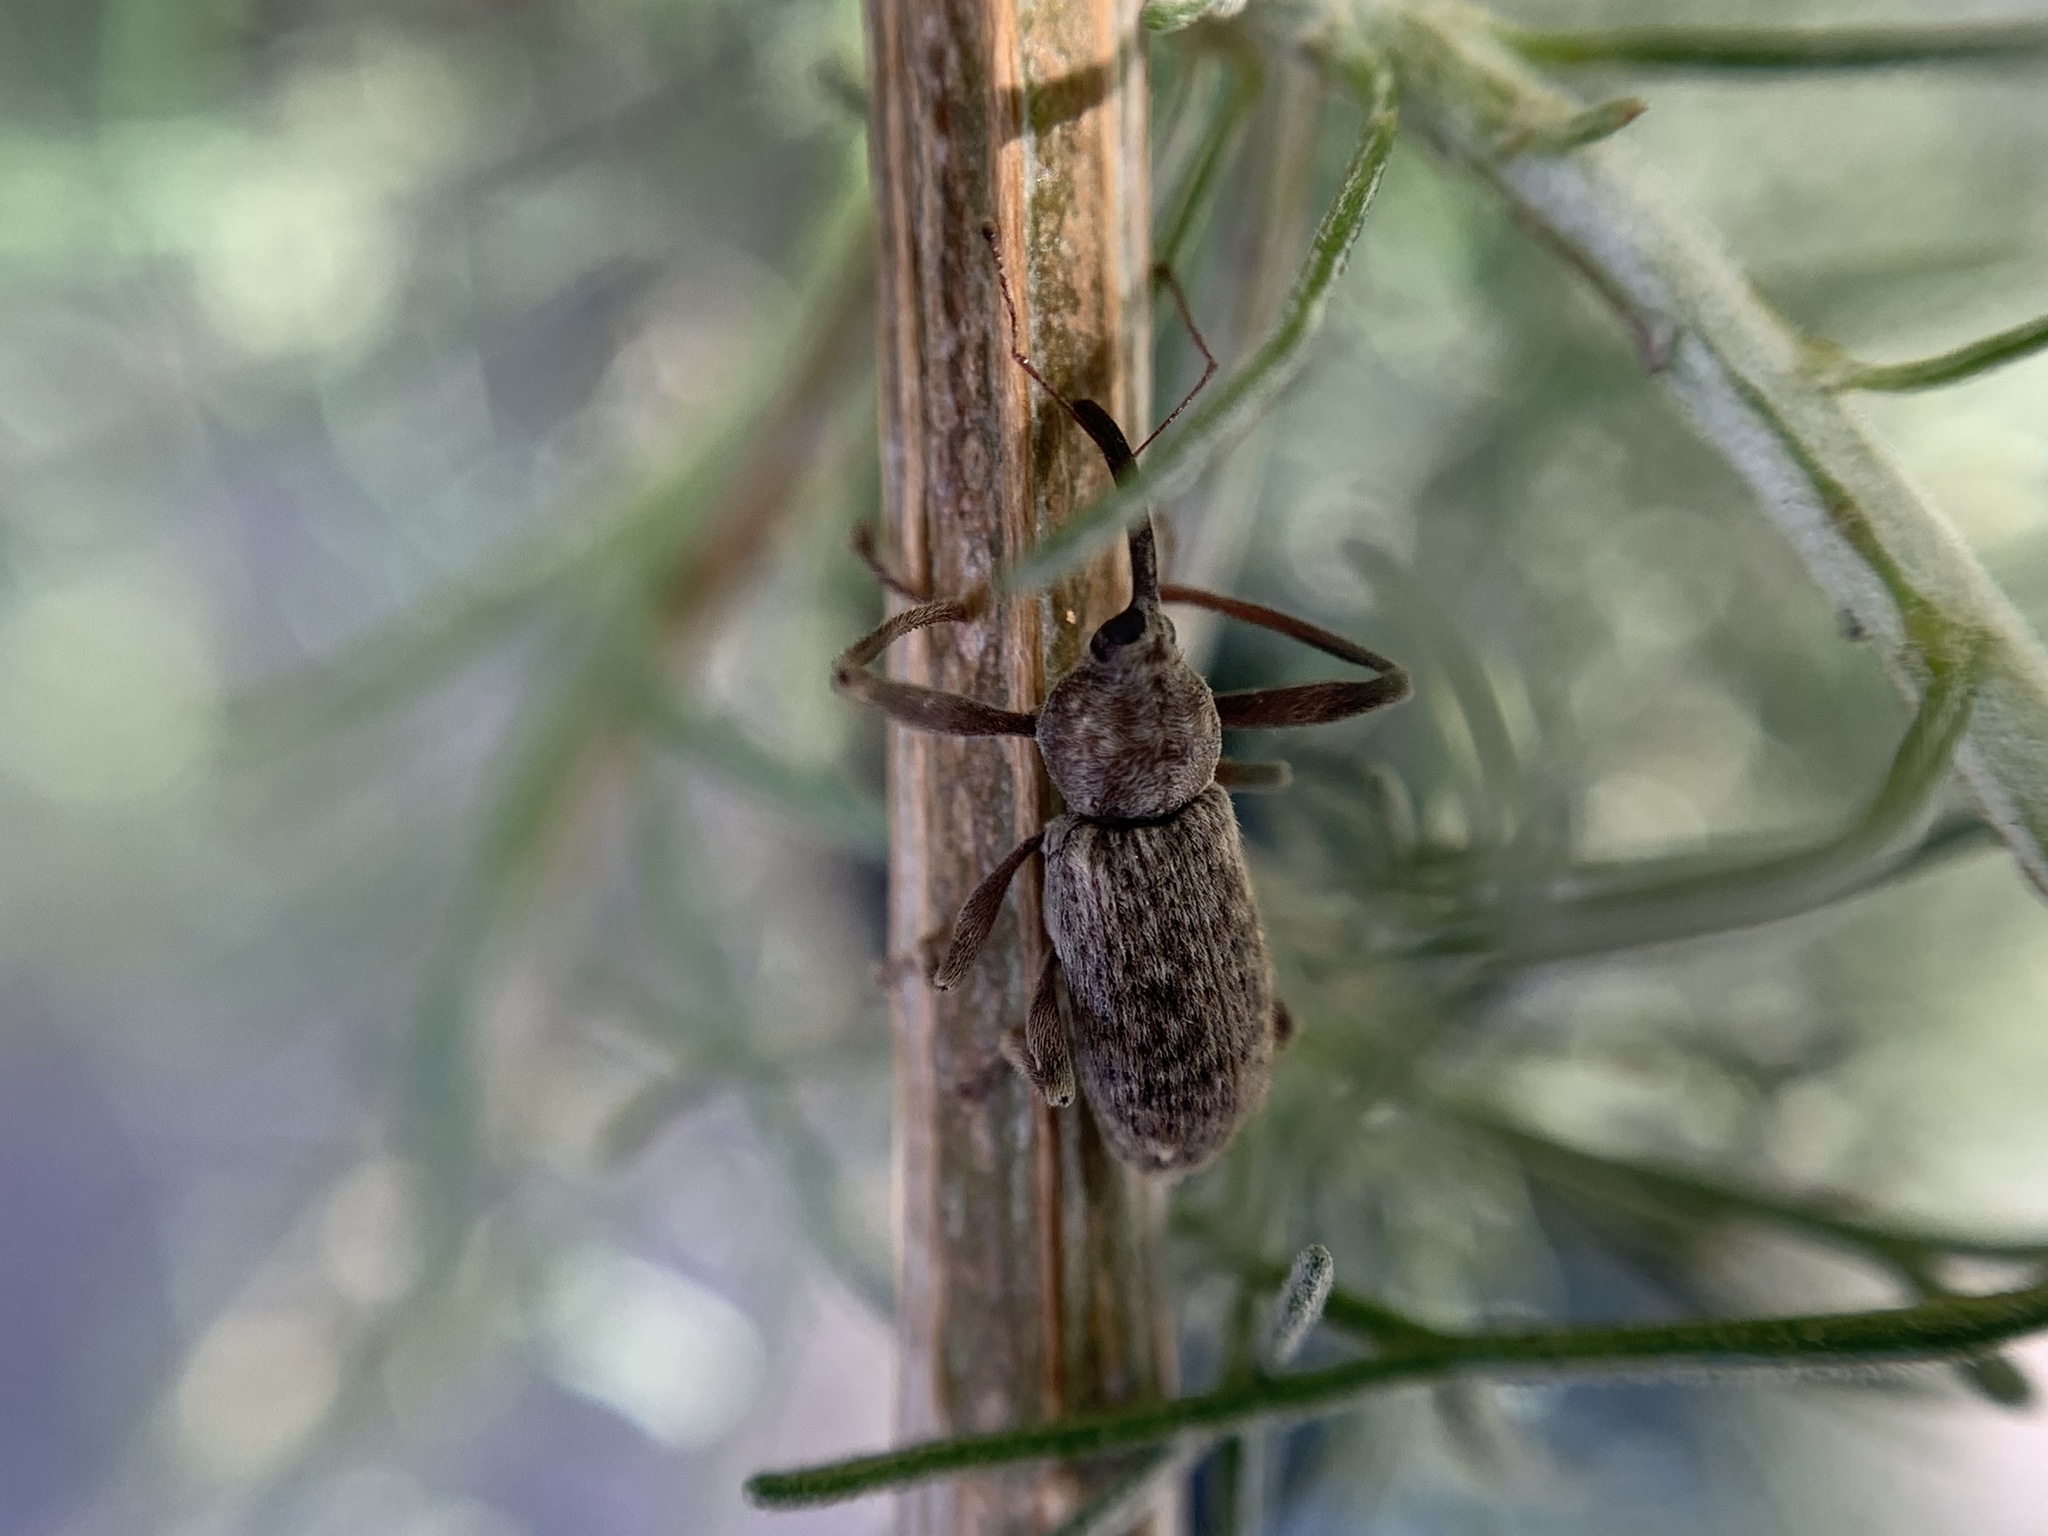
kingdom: Animalia
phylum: Arthropoda
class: Insecta
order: Coleoptera
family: Curculionidae
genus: Dorytomus
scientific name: Dorytomus inaequalis
